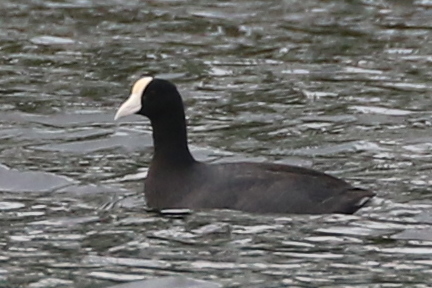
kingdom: Animalia
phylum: Chordata
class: Aves
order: Gruiformes
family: Rallidae
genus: Fulica
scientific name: Fulica alai
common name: Hawaiian coot
